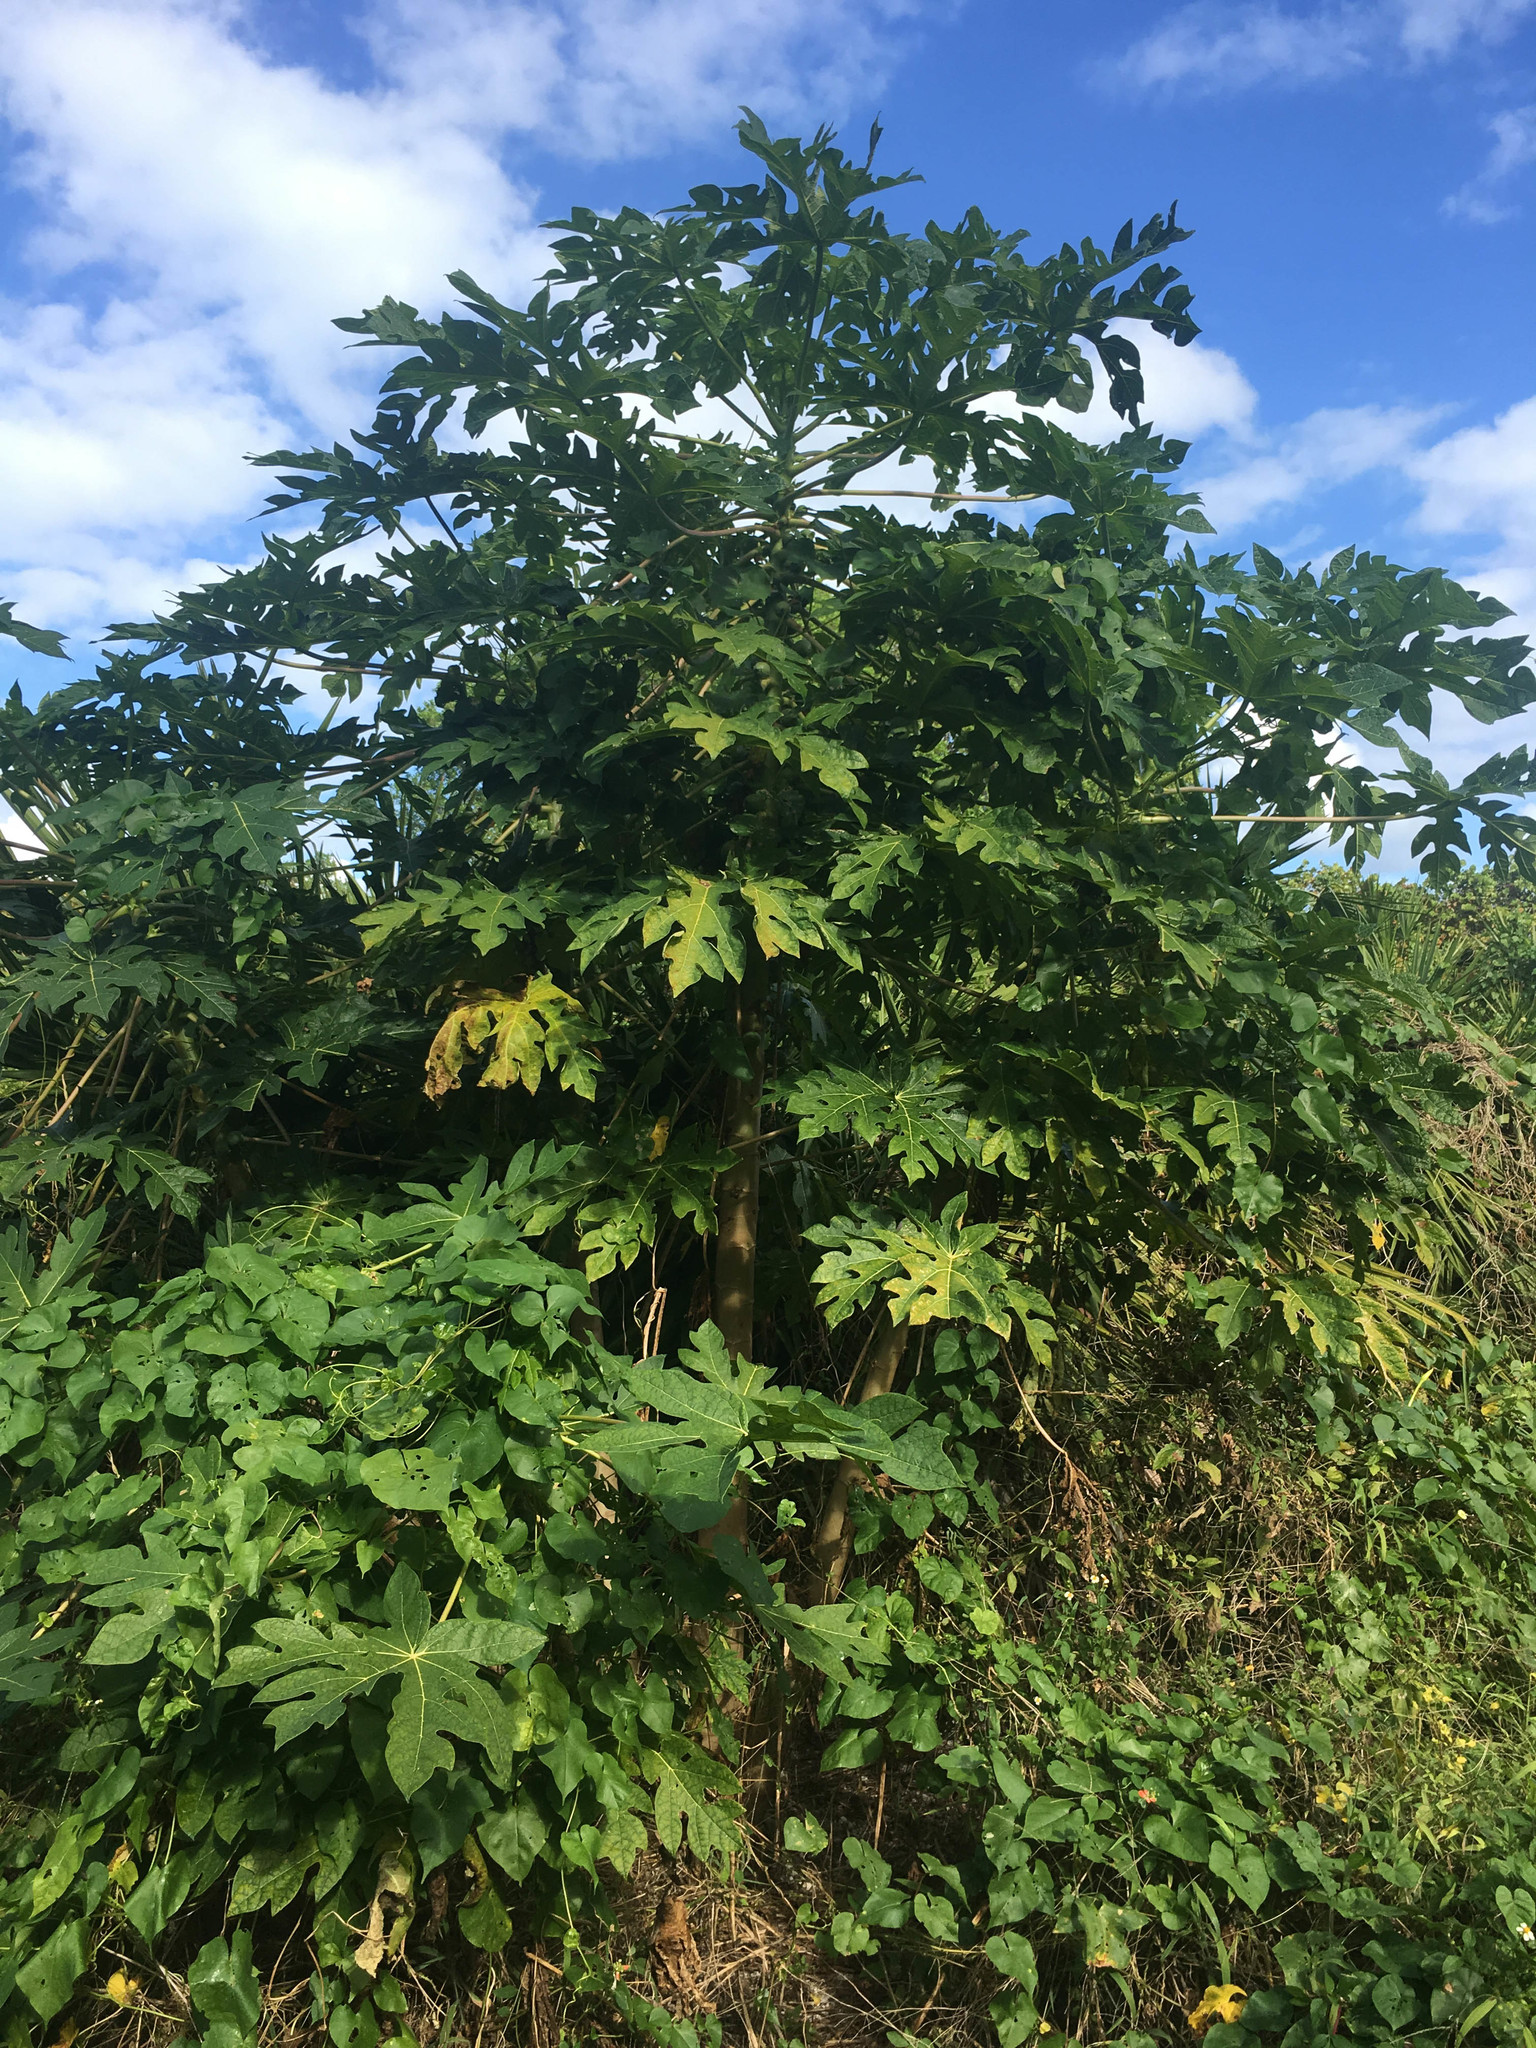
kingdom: Plantae
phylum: Tracheophyta
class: Magnoliopsida
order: Brassicales
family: Caricaceae
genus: Carica
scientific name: Carica papaya
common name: Papaya
